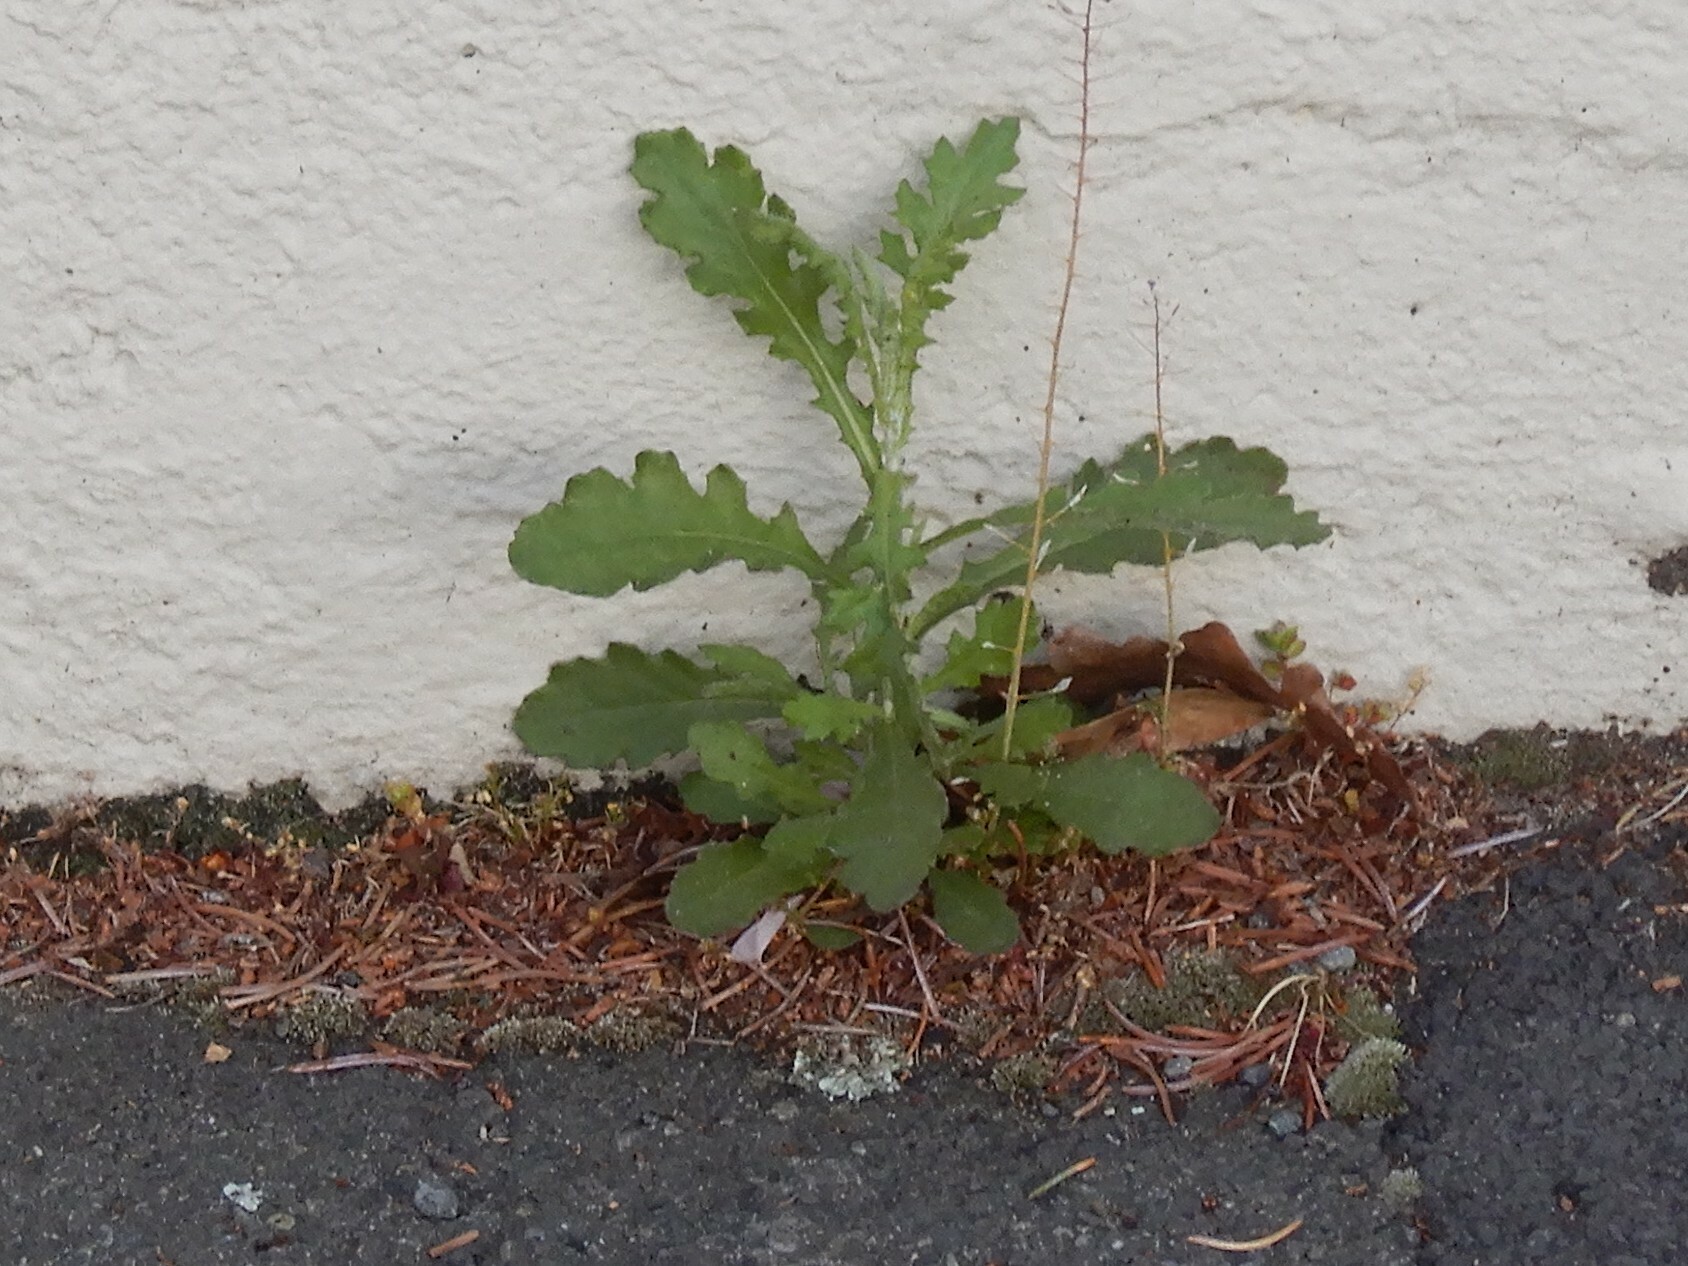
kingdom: Plantae
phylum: Tracheophyta
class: Magnoliopsida
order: Asterales
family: Asteraceae
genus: Senecio
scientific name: Senecio glomeratus
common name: Cutleaf burnweed
